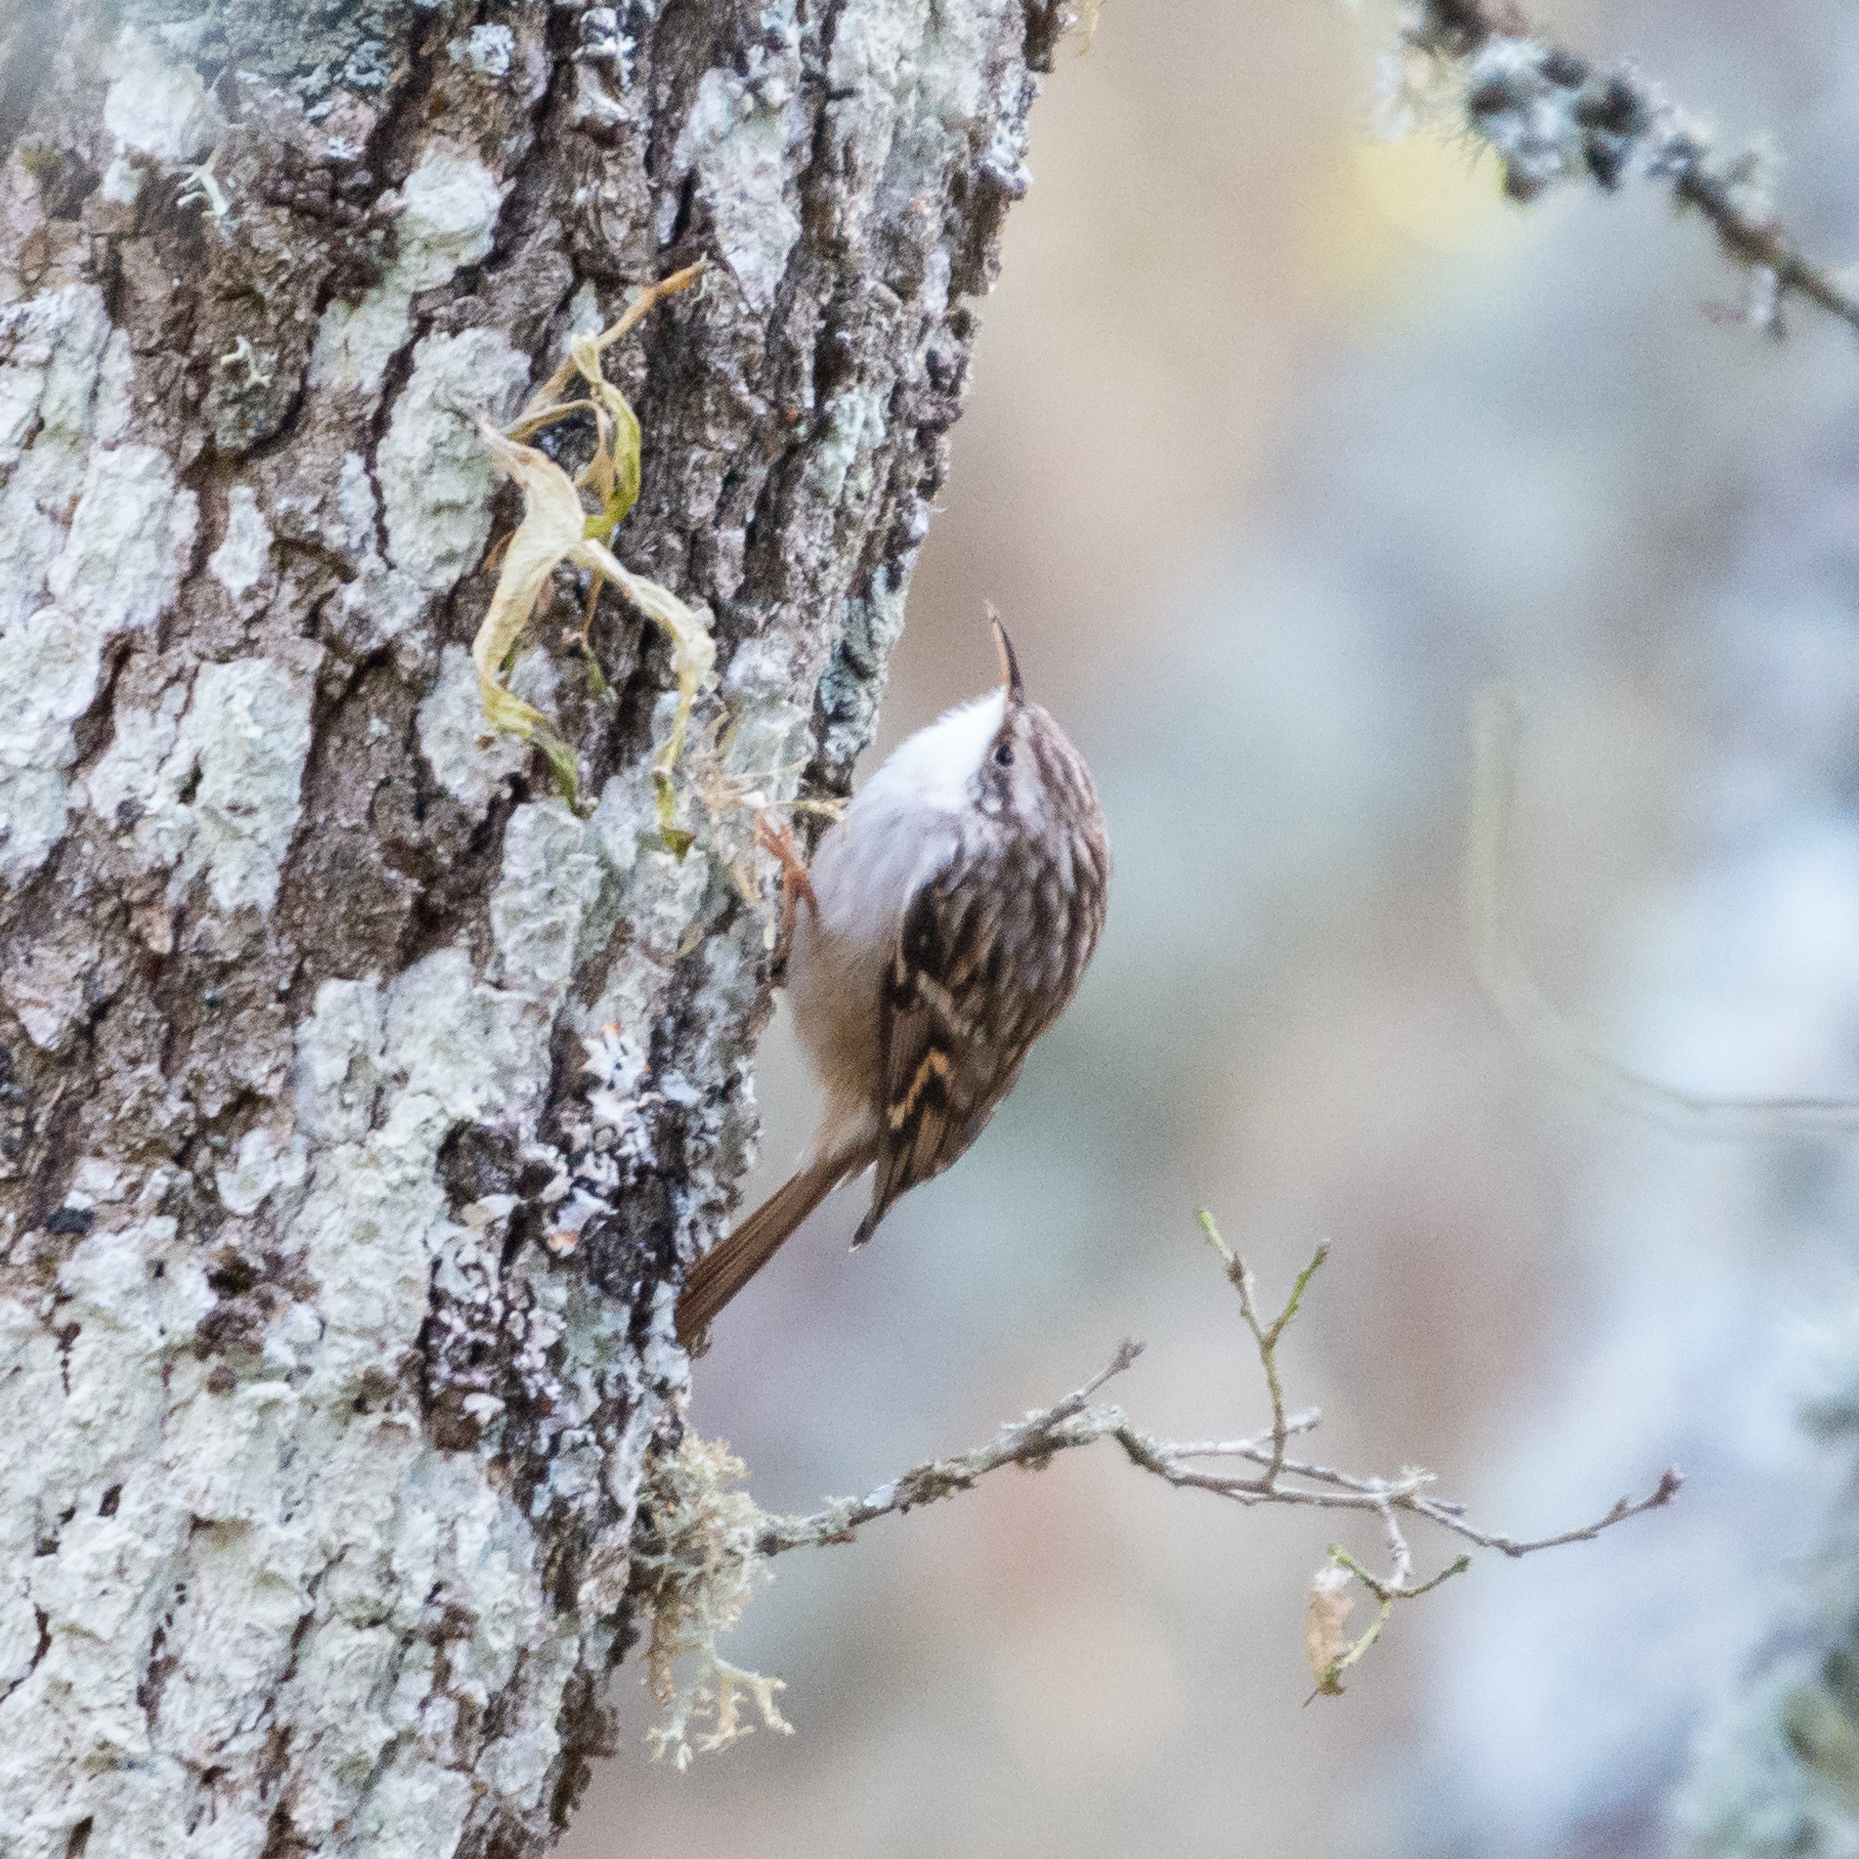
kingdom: Animalia
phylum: Chordata
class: Aves
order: Passeriformes
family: Certhiidae
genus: Certhia
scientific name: Certhia brachydactyla
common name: Short-toed treecreeper
